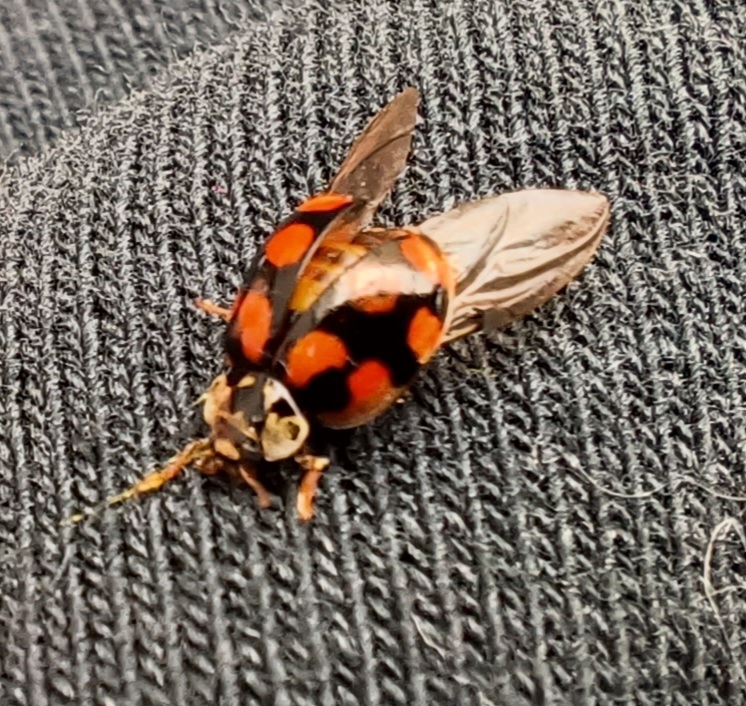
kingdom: Animalia
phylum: Arthropoda
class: Insecta
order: Coleoptera
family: Coccinellidae
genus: Adalia
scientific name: Adalia decempunctata
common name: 10-spot ladybird
